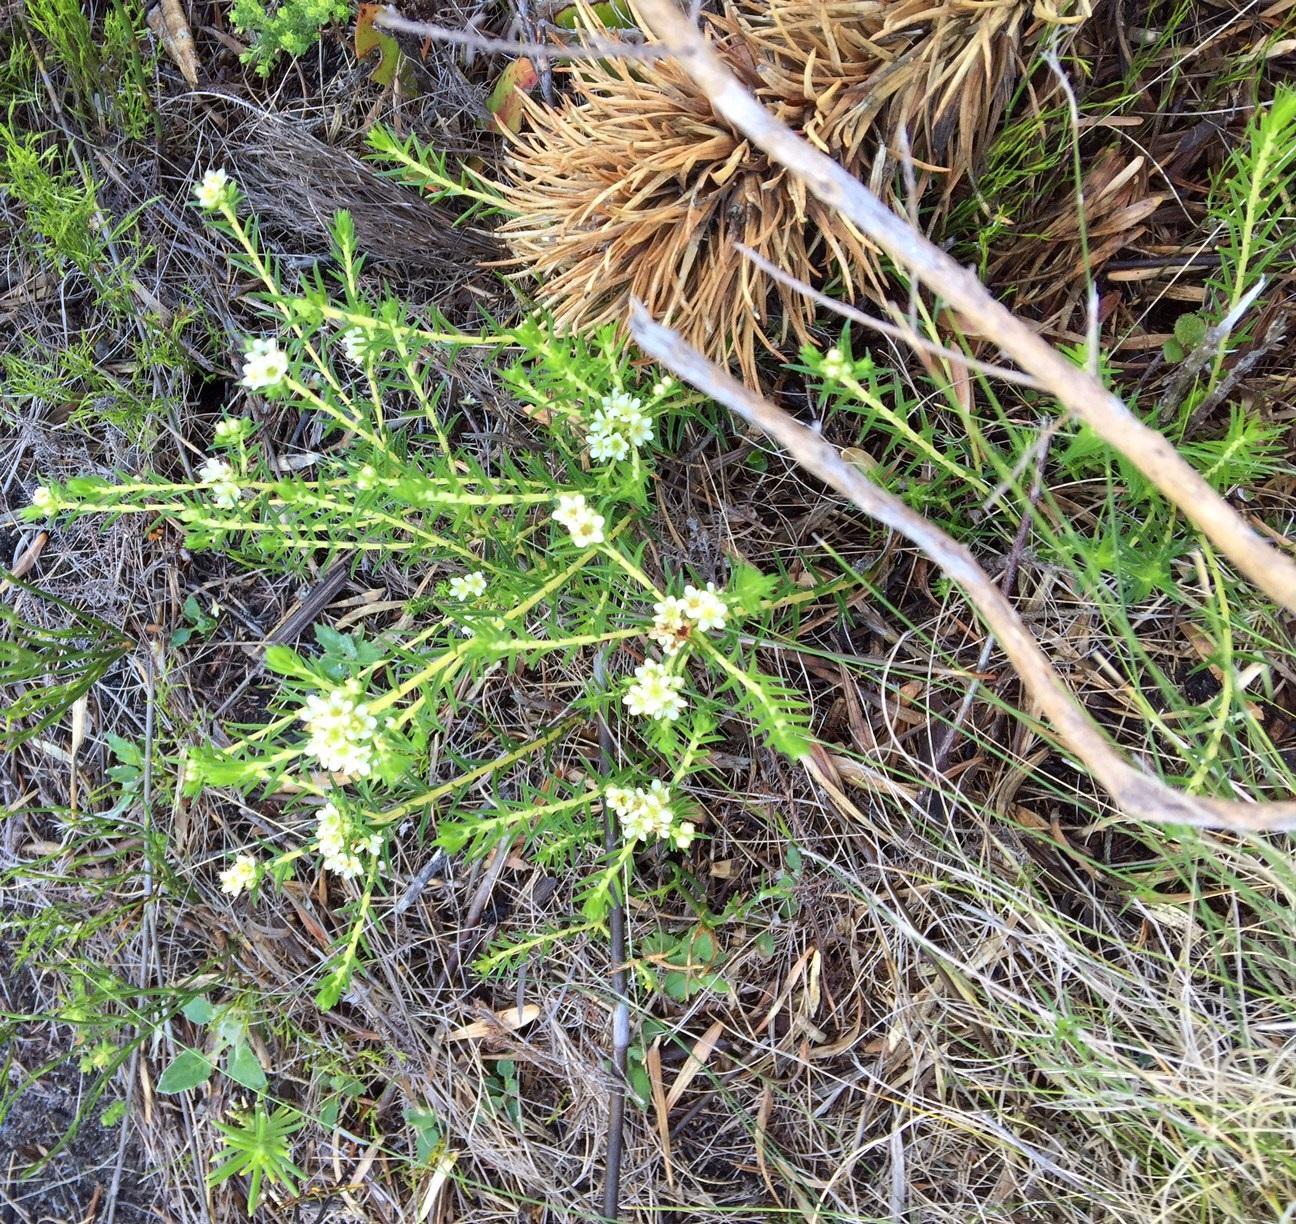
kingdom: Plantae
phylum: Tracheophyta
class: Magnoliopsida
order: Sapindales
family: Rutaceae
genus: Diosma
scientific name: Diosma oppositifolia
